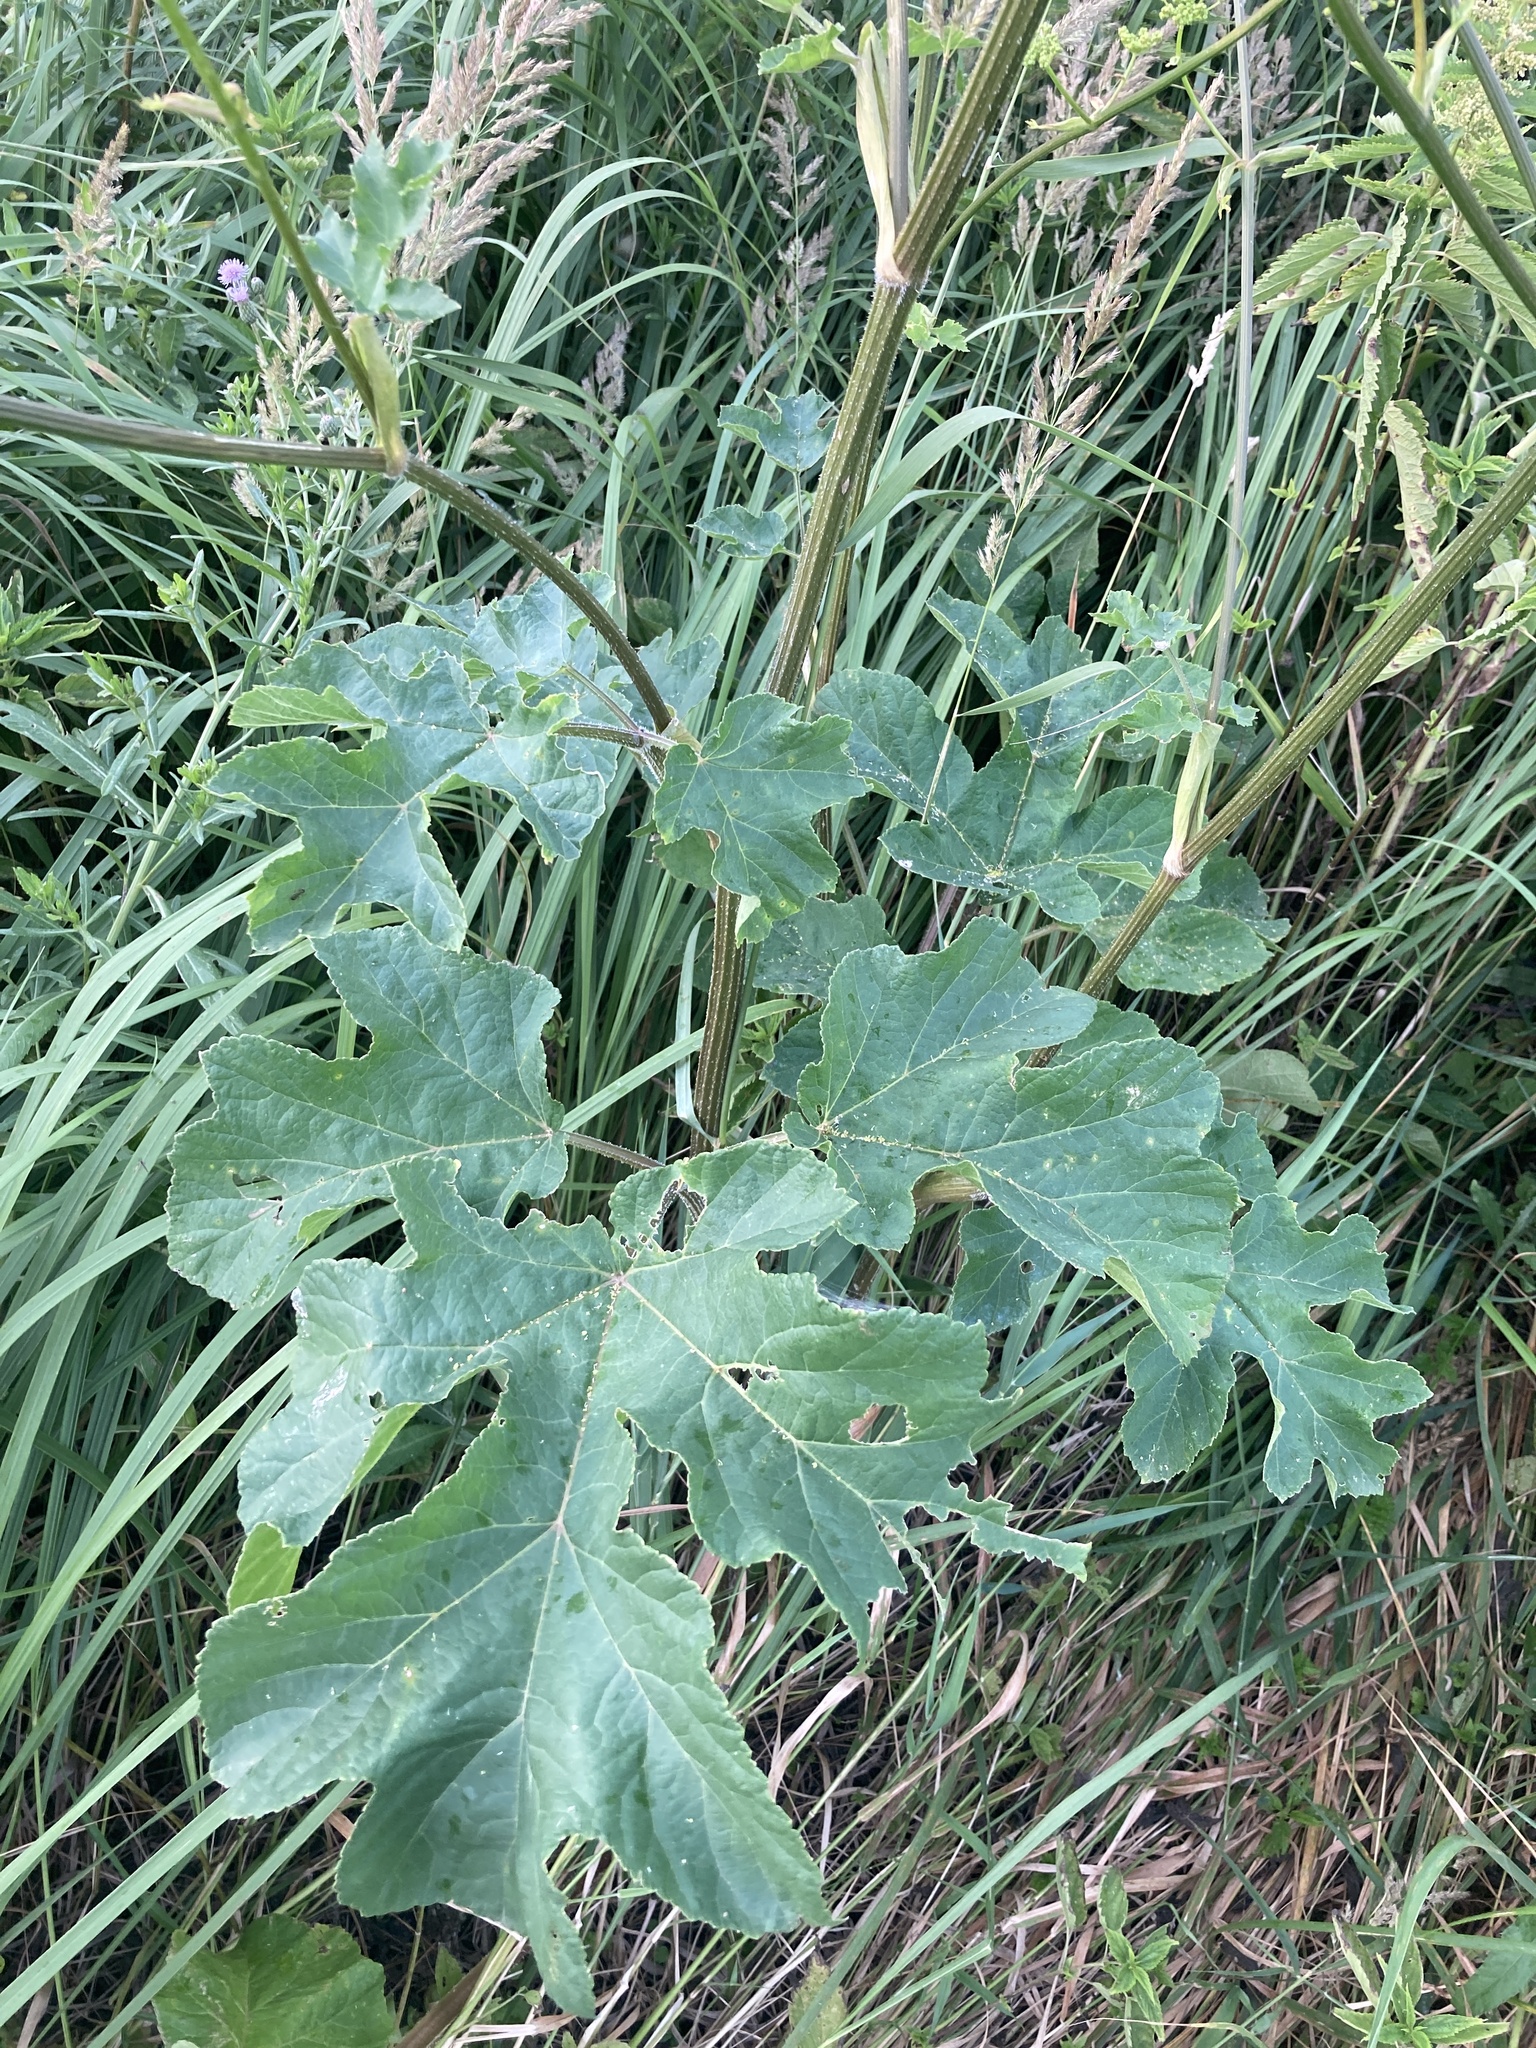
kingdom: Plantae
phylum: Tracheophyta
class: Magnoliopsida
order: Apiales
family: Apiaceae
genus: Heracleum
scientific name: Heracleum sphondylium
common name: Hogweed
